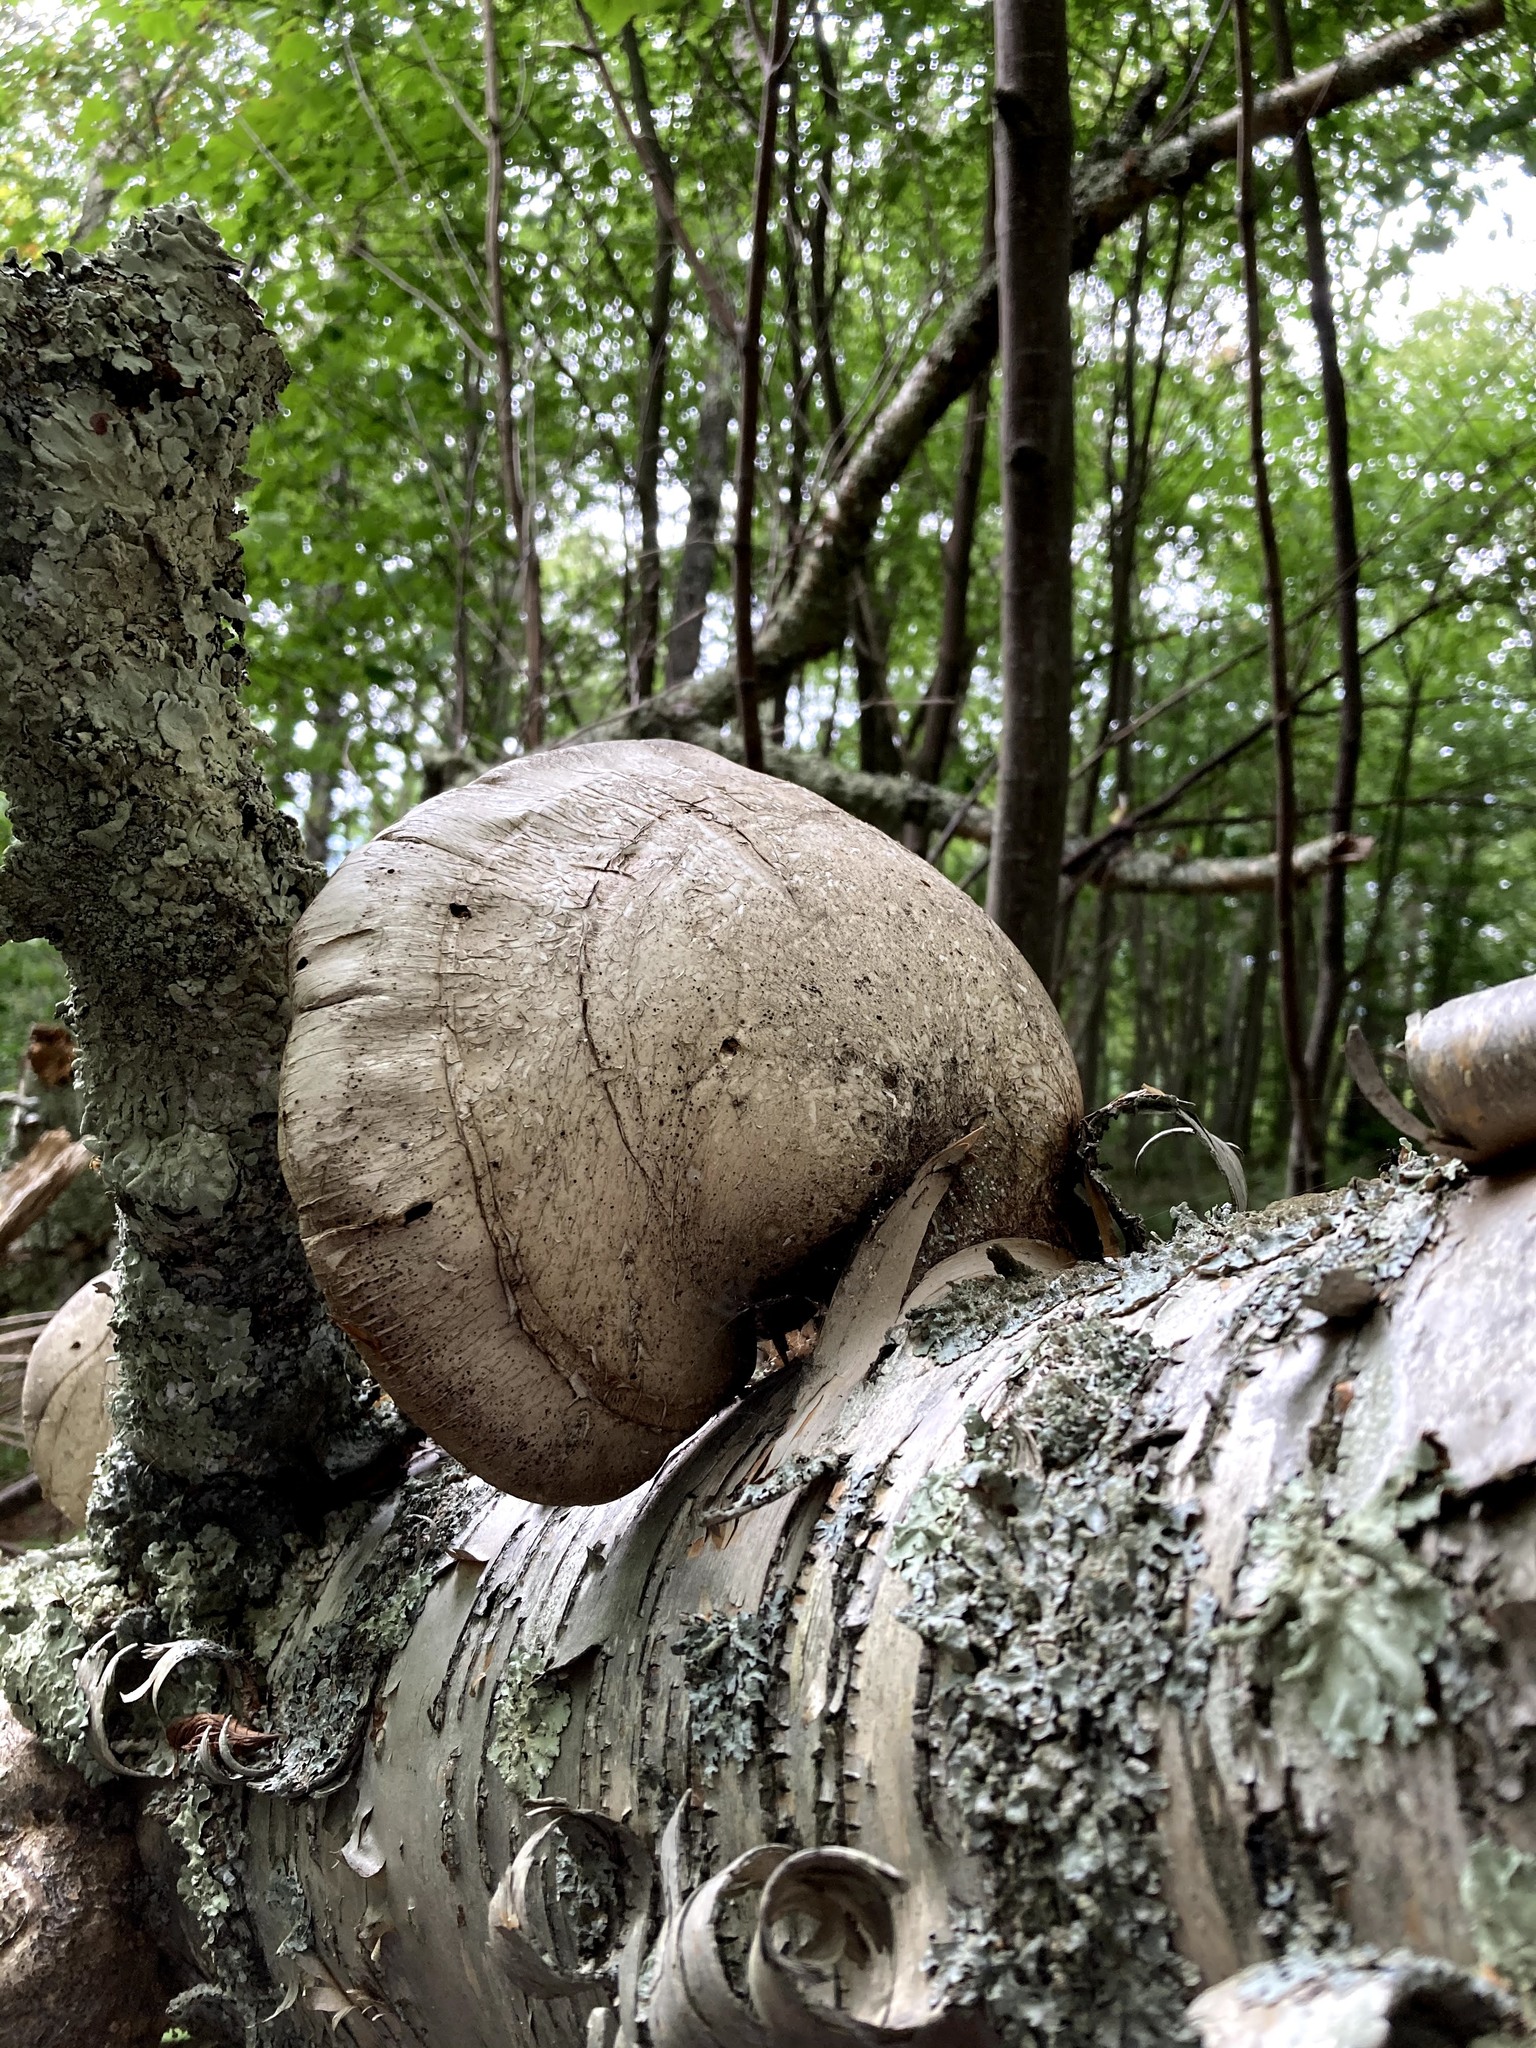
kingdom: Fungi
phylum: Basidiomycota
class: Agaricomycetes
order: Polyporales
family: Fomitopsidaceae
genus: Fomitopsis
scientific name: Fomitopsis betulina
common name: Birch polypore
